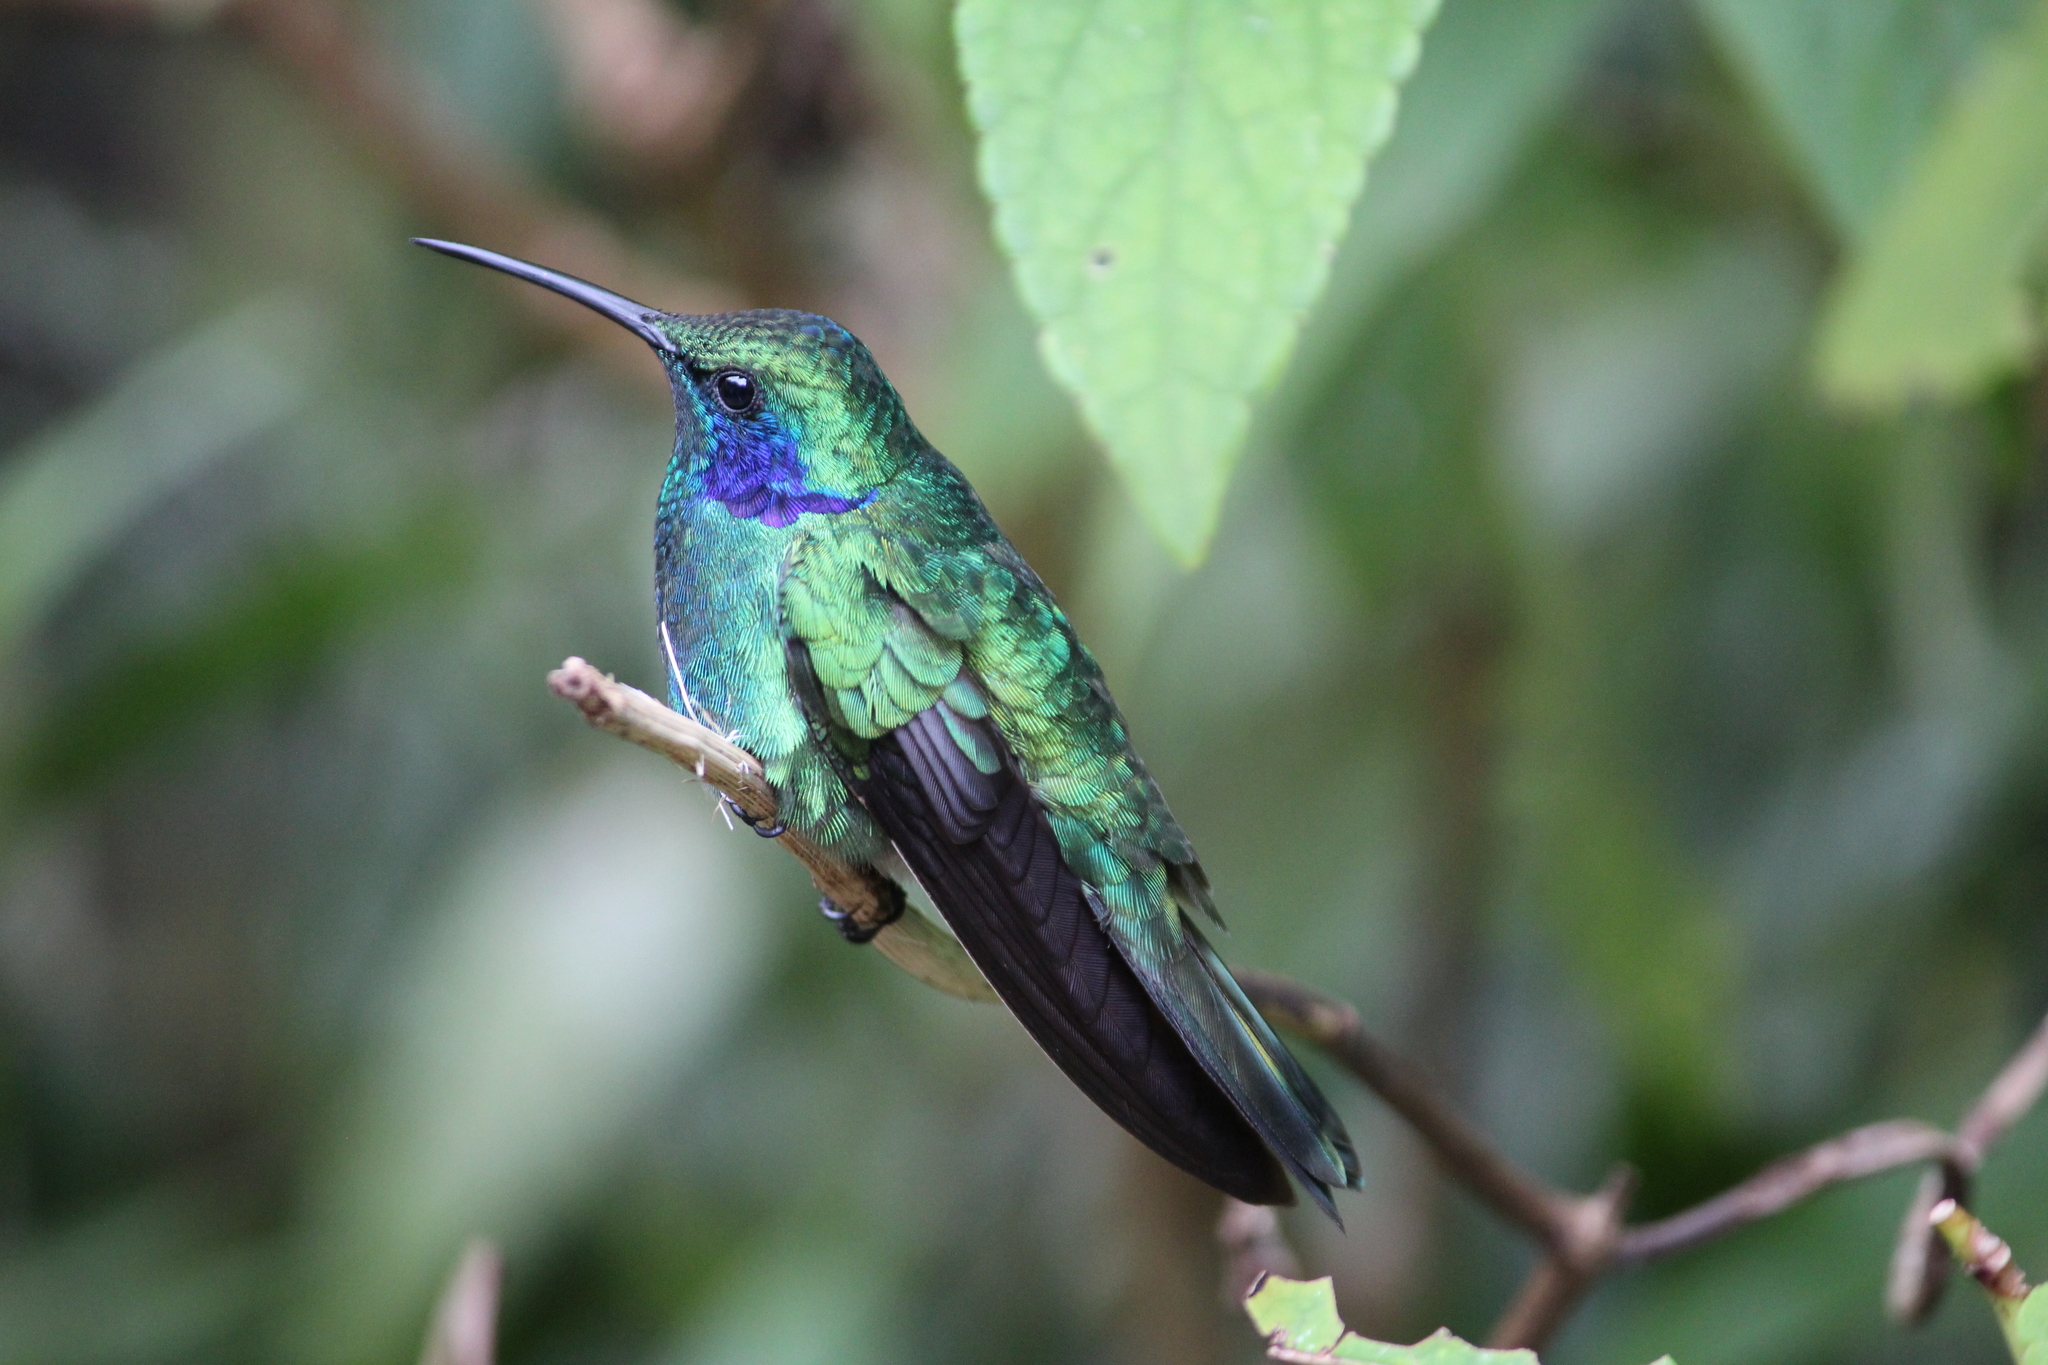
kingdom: Animalia
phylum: Chordata
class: Aves
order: Apodiformes
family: Trochilidae
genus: Colibri
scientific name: Colibri cyanotus
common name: Lesser violetear
